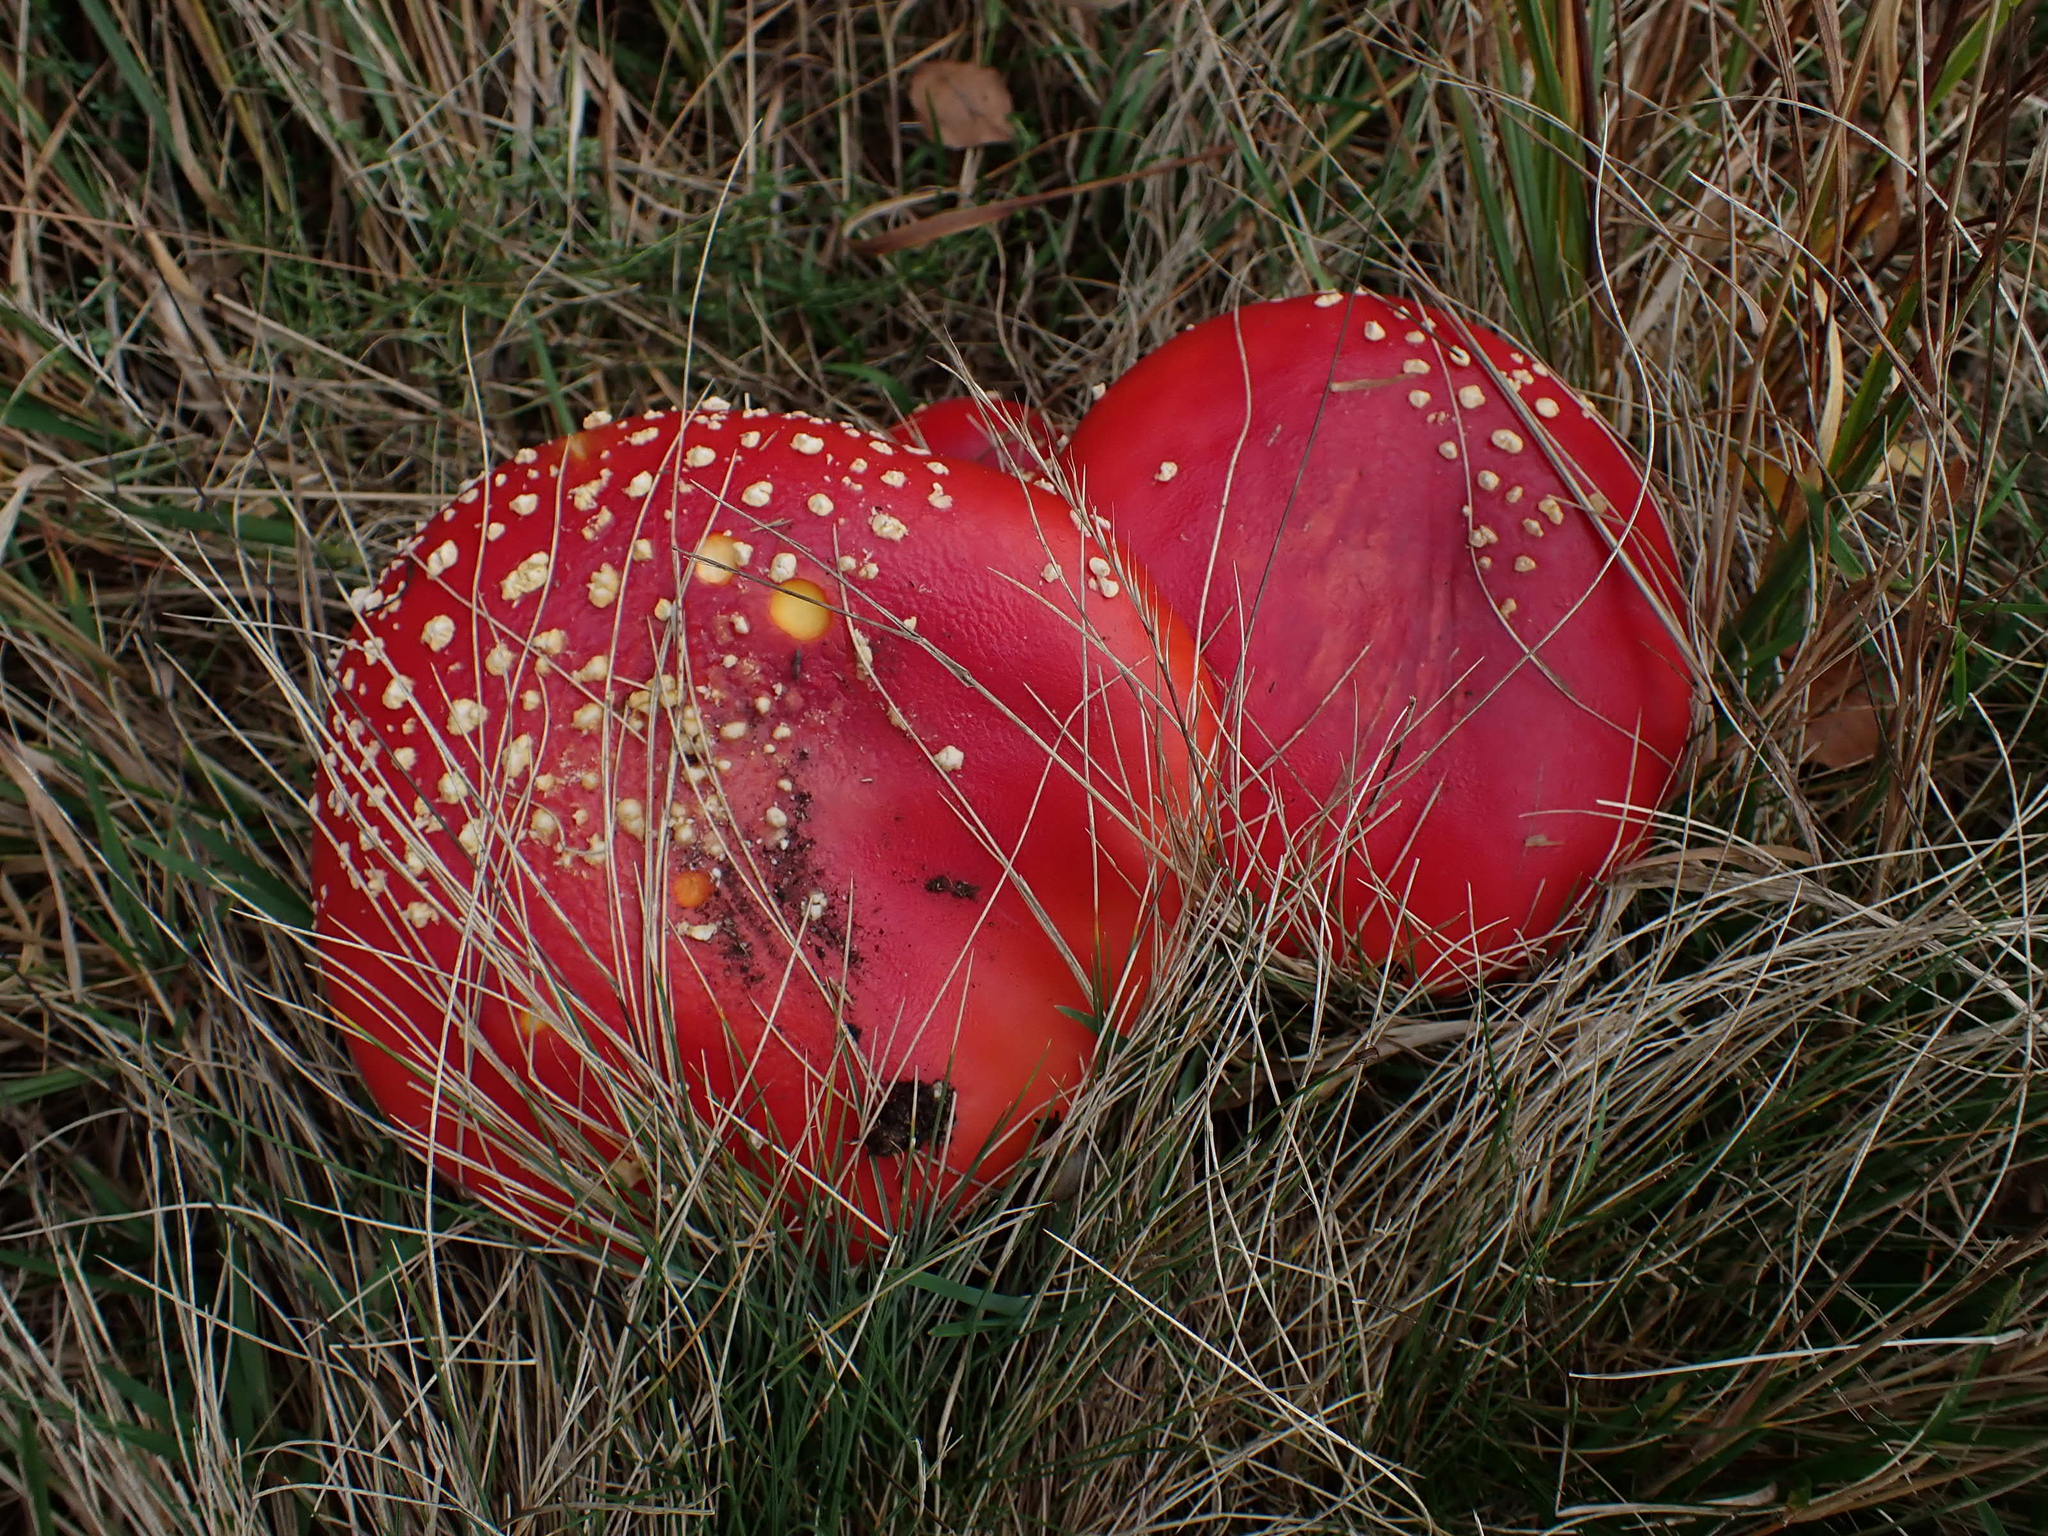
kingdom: Fungi
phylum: Basidiomycota
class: Agaricomycetes
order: Agaricales
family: Amanitaceae
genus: Amanita
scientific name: Amanita muscaria
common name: Fly agaric
